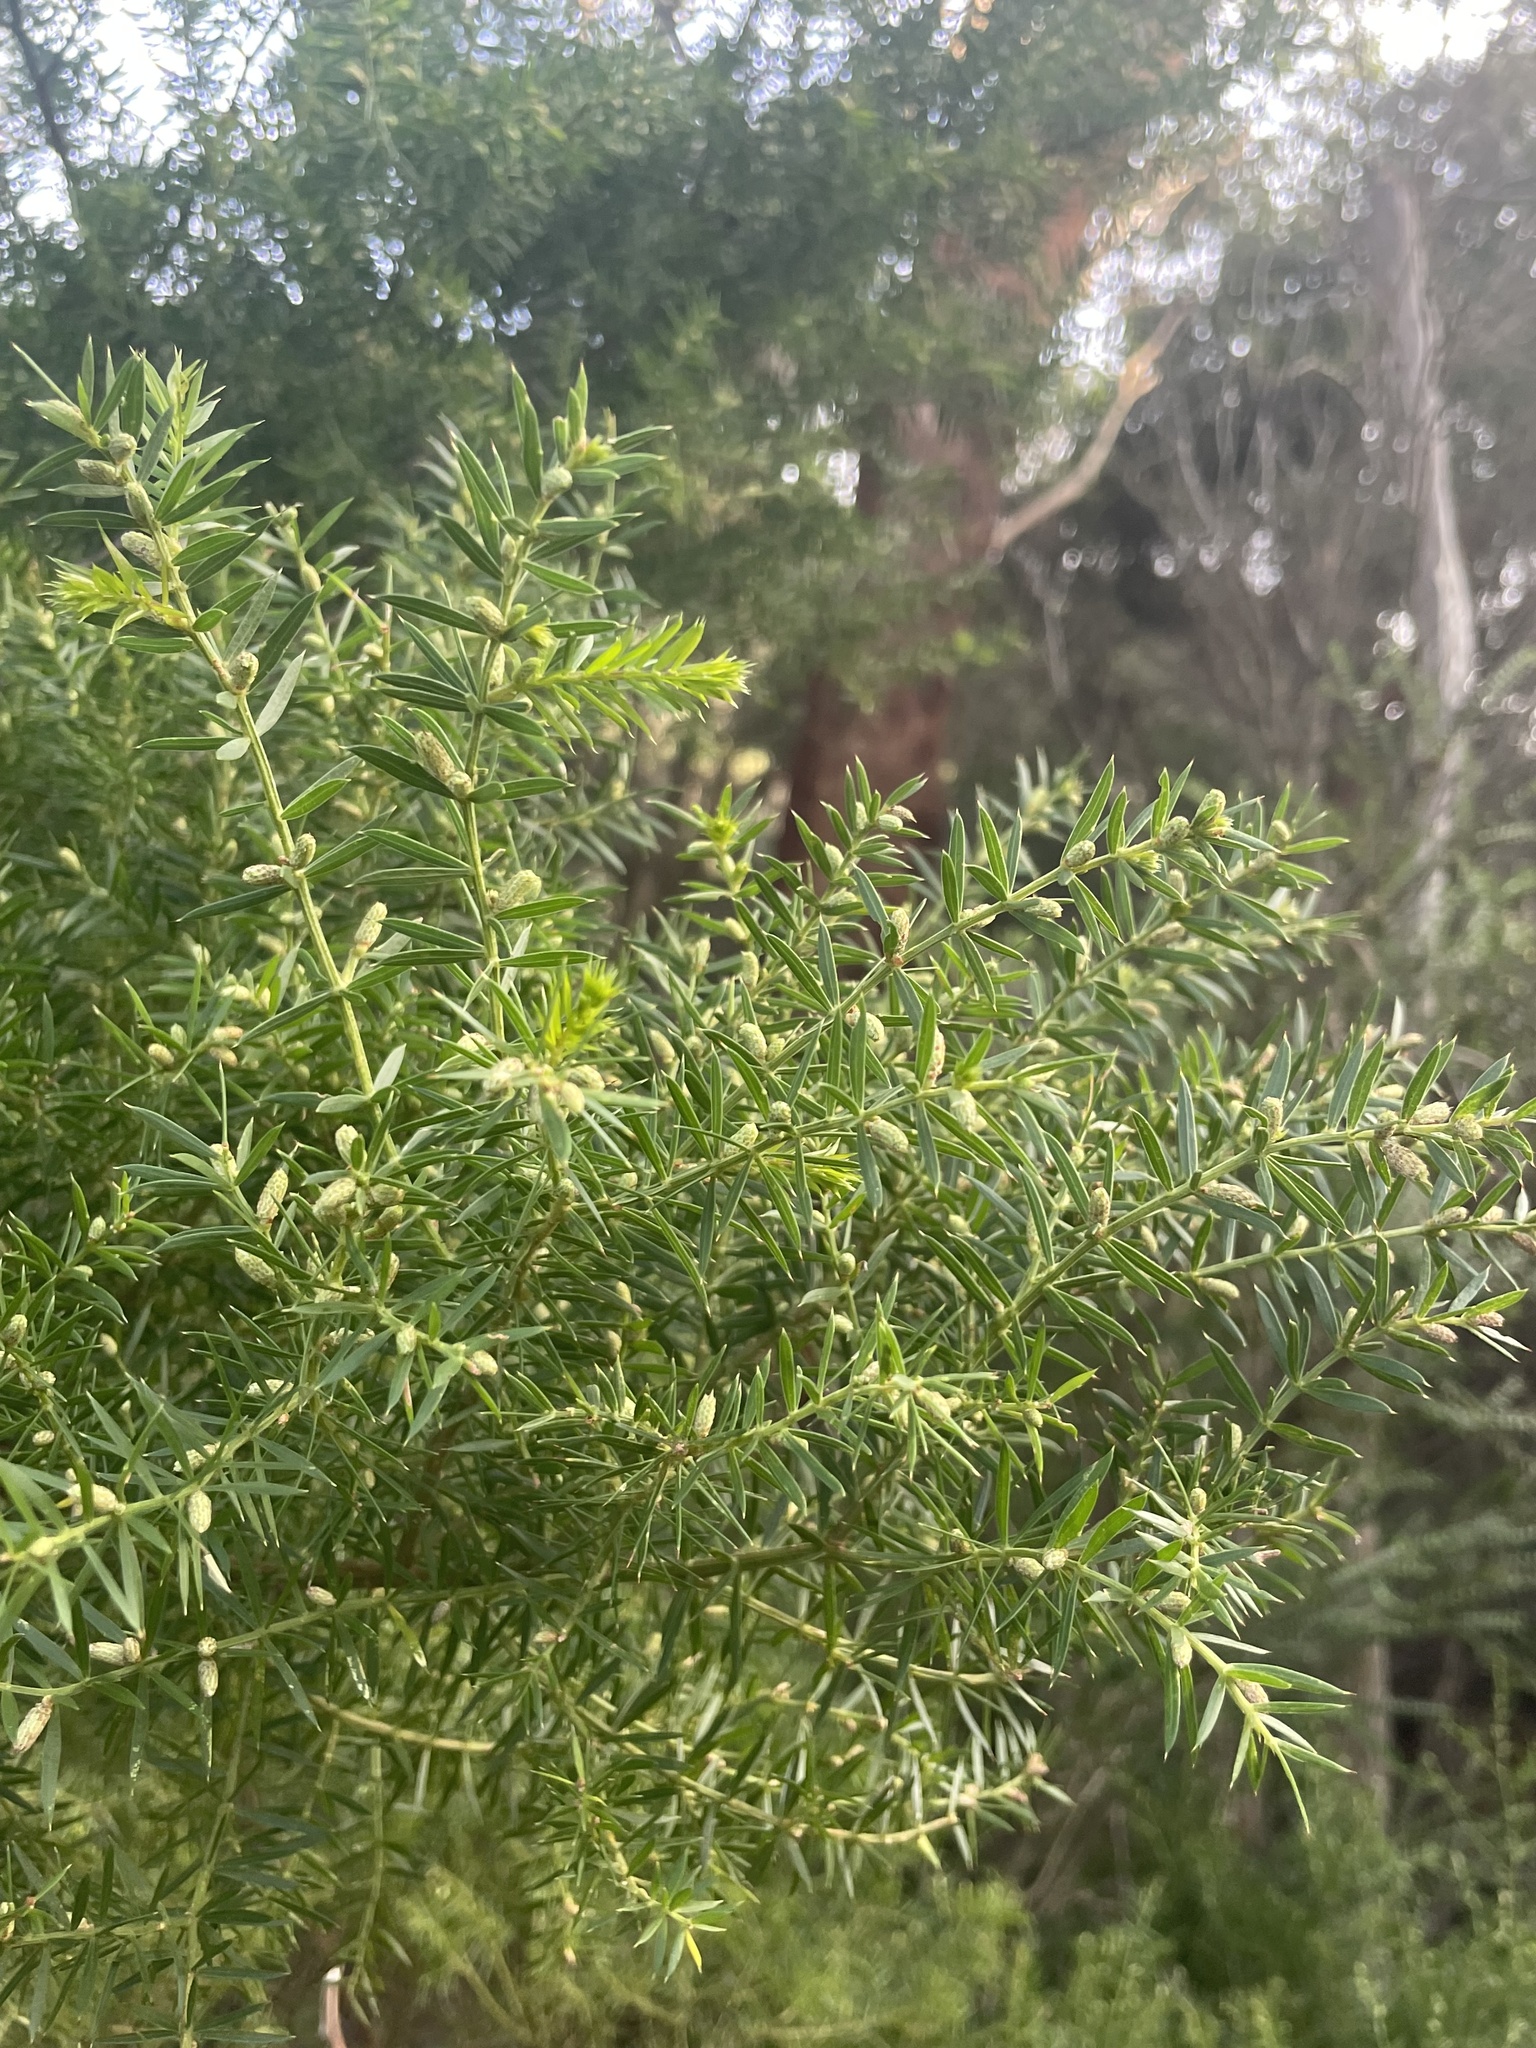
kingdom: Plantae
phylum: Tracheophyta
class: Magnoliopsida
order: Fabales
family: Fabaceae
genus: Acacia
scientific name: Acacia verticillata
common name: Prickly moses
